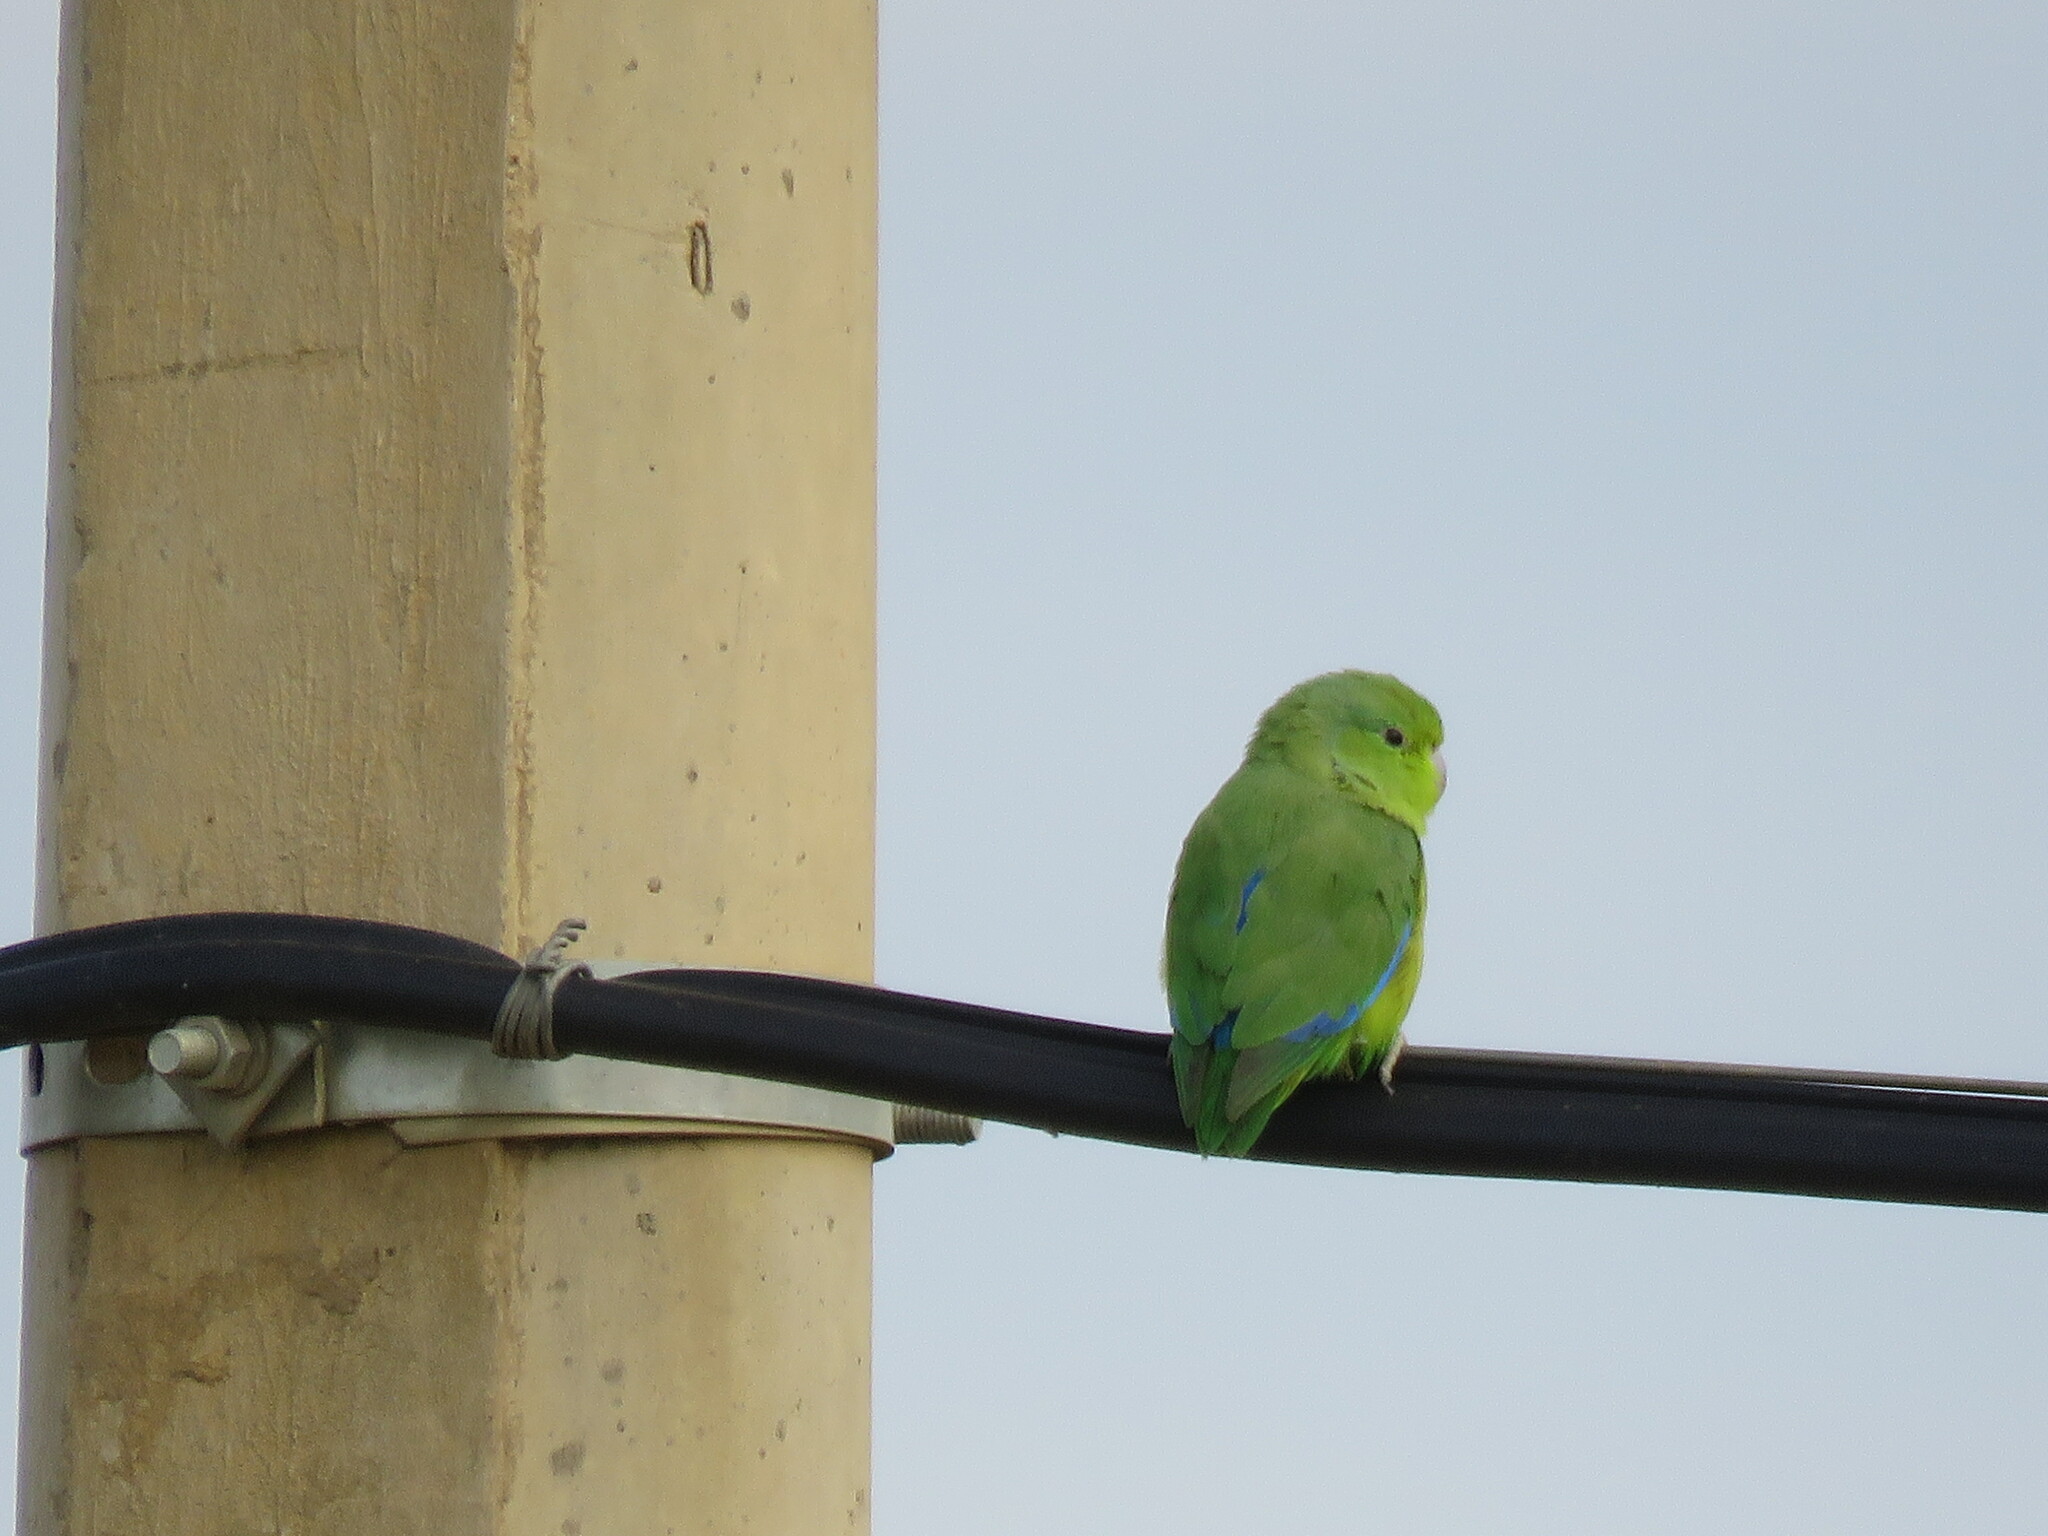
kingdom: Animalia
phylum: Chordata
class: Aves
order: Psittaciformes
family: Psittacidae
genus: Forpus
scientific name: Forpus xanthopterygius
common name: Blue-winged parrotlet
